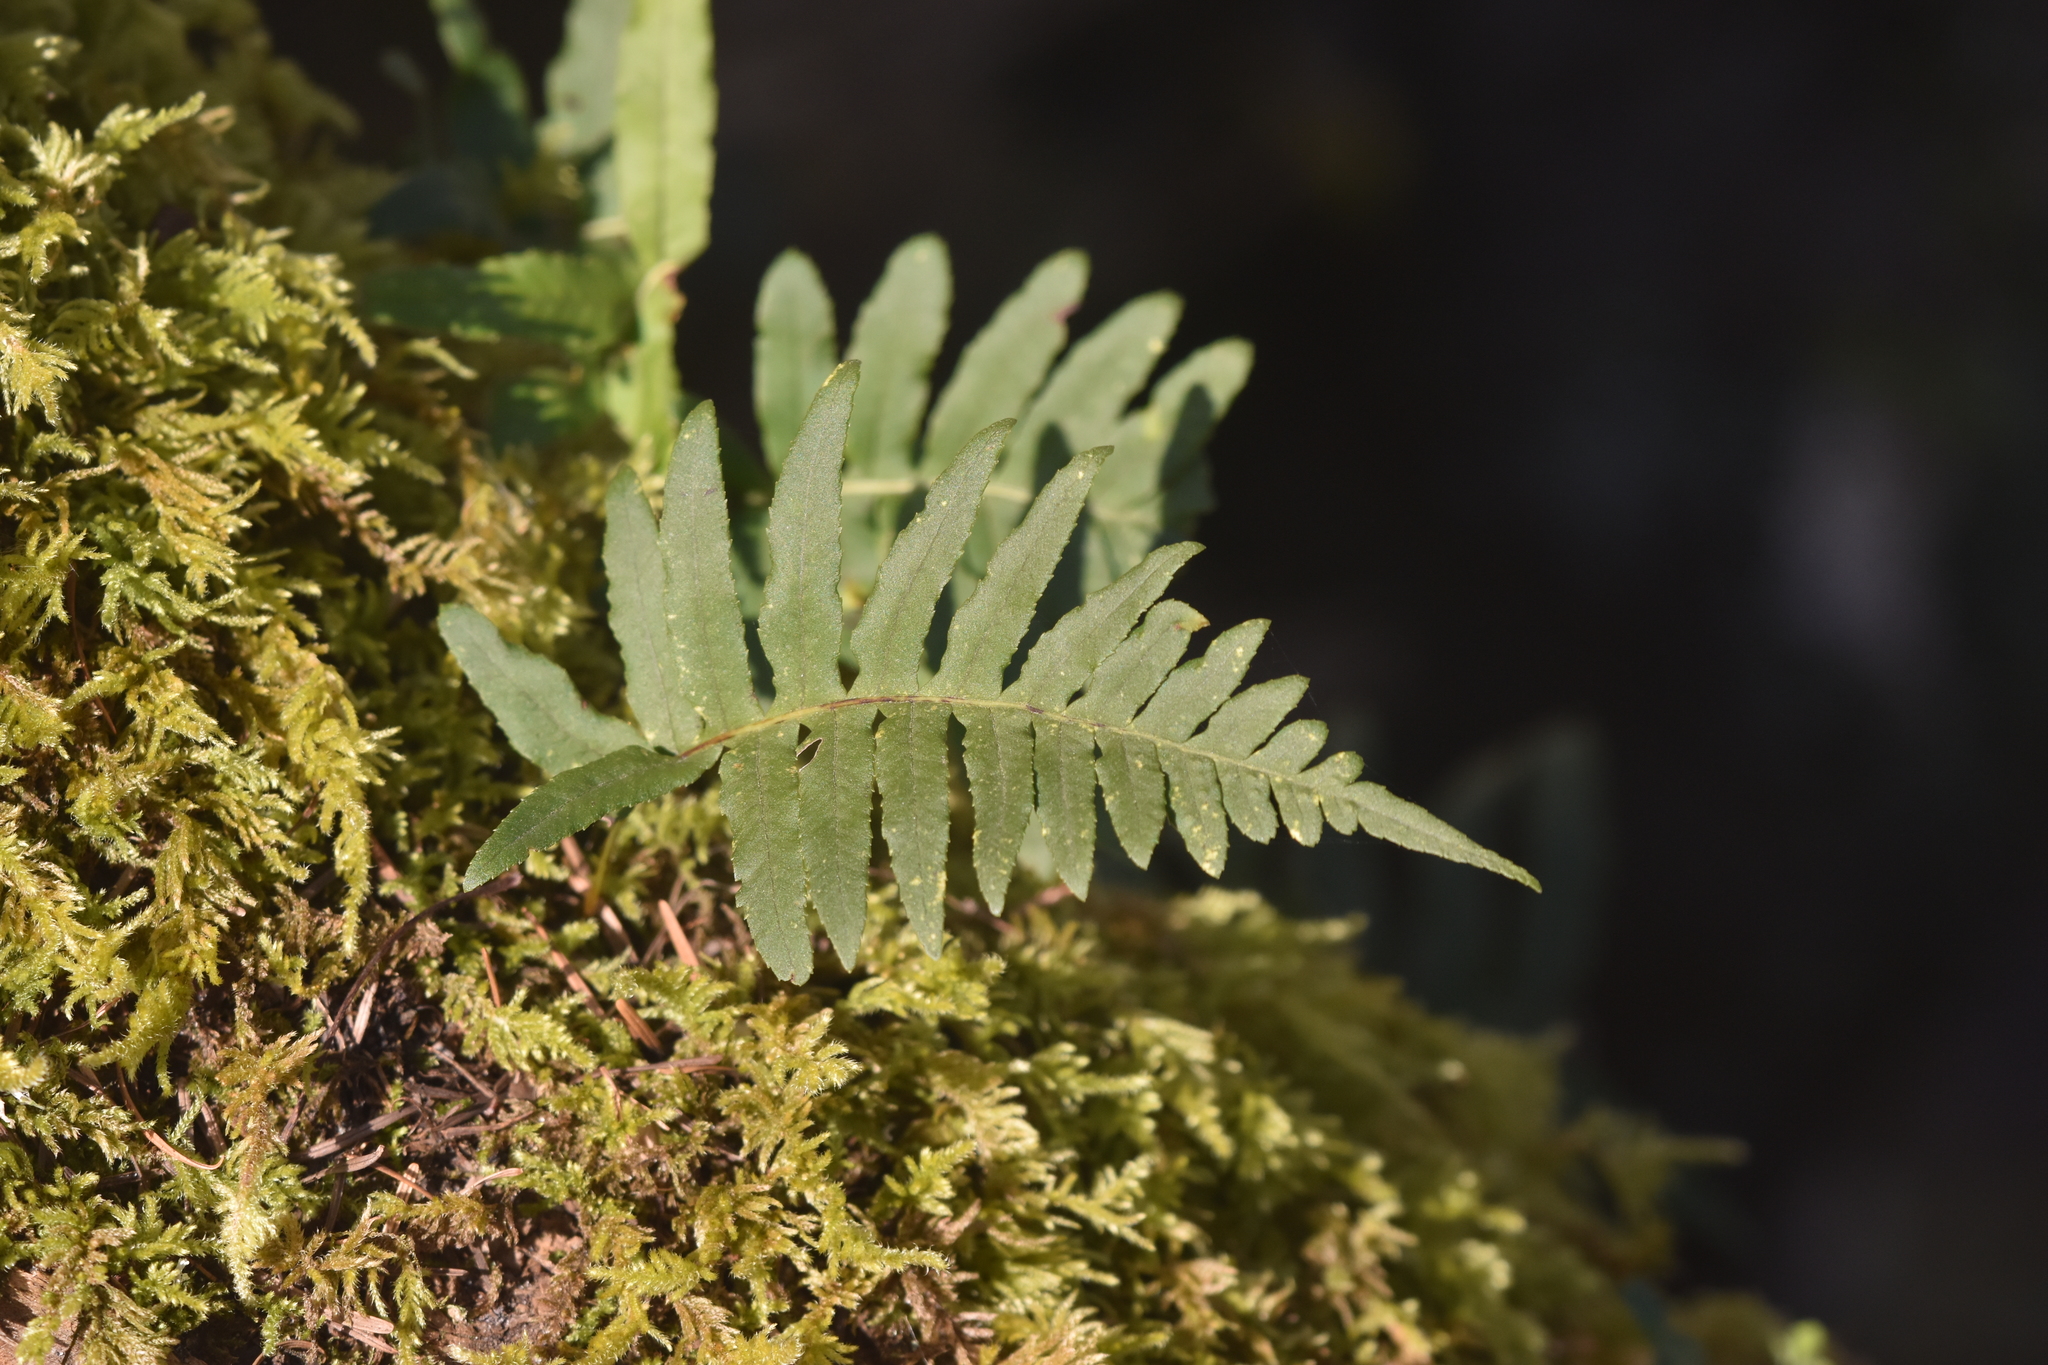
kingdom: Plantae
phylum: Tracheophyta
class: Polypodiopsida
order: Polypodiales
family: Polypodiaceae
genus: Polypodium
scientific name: Polypodium glycyrrhiza
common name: Licorice fern
